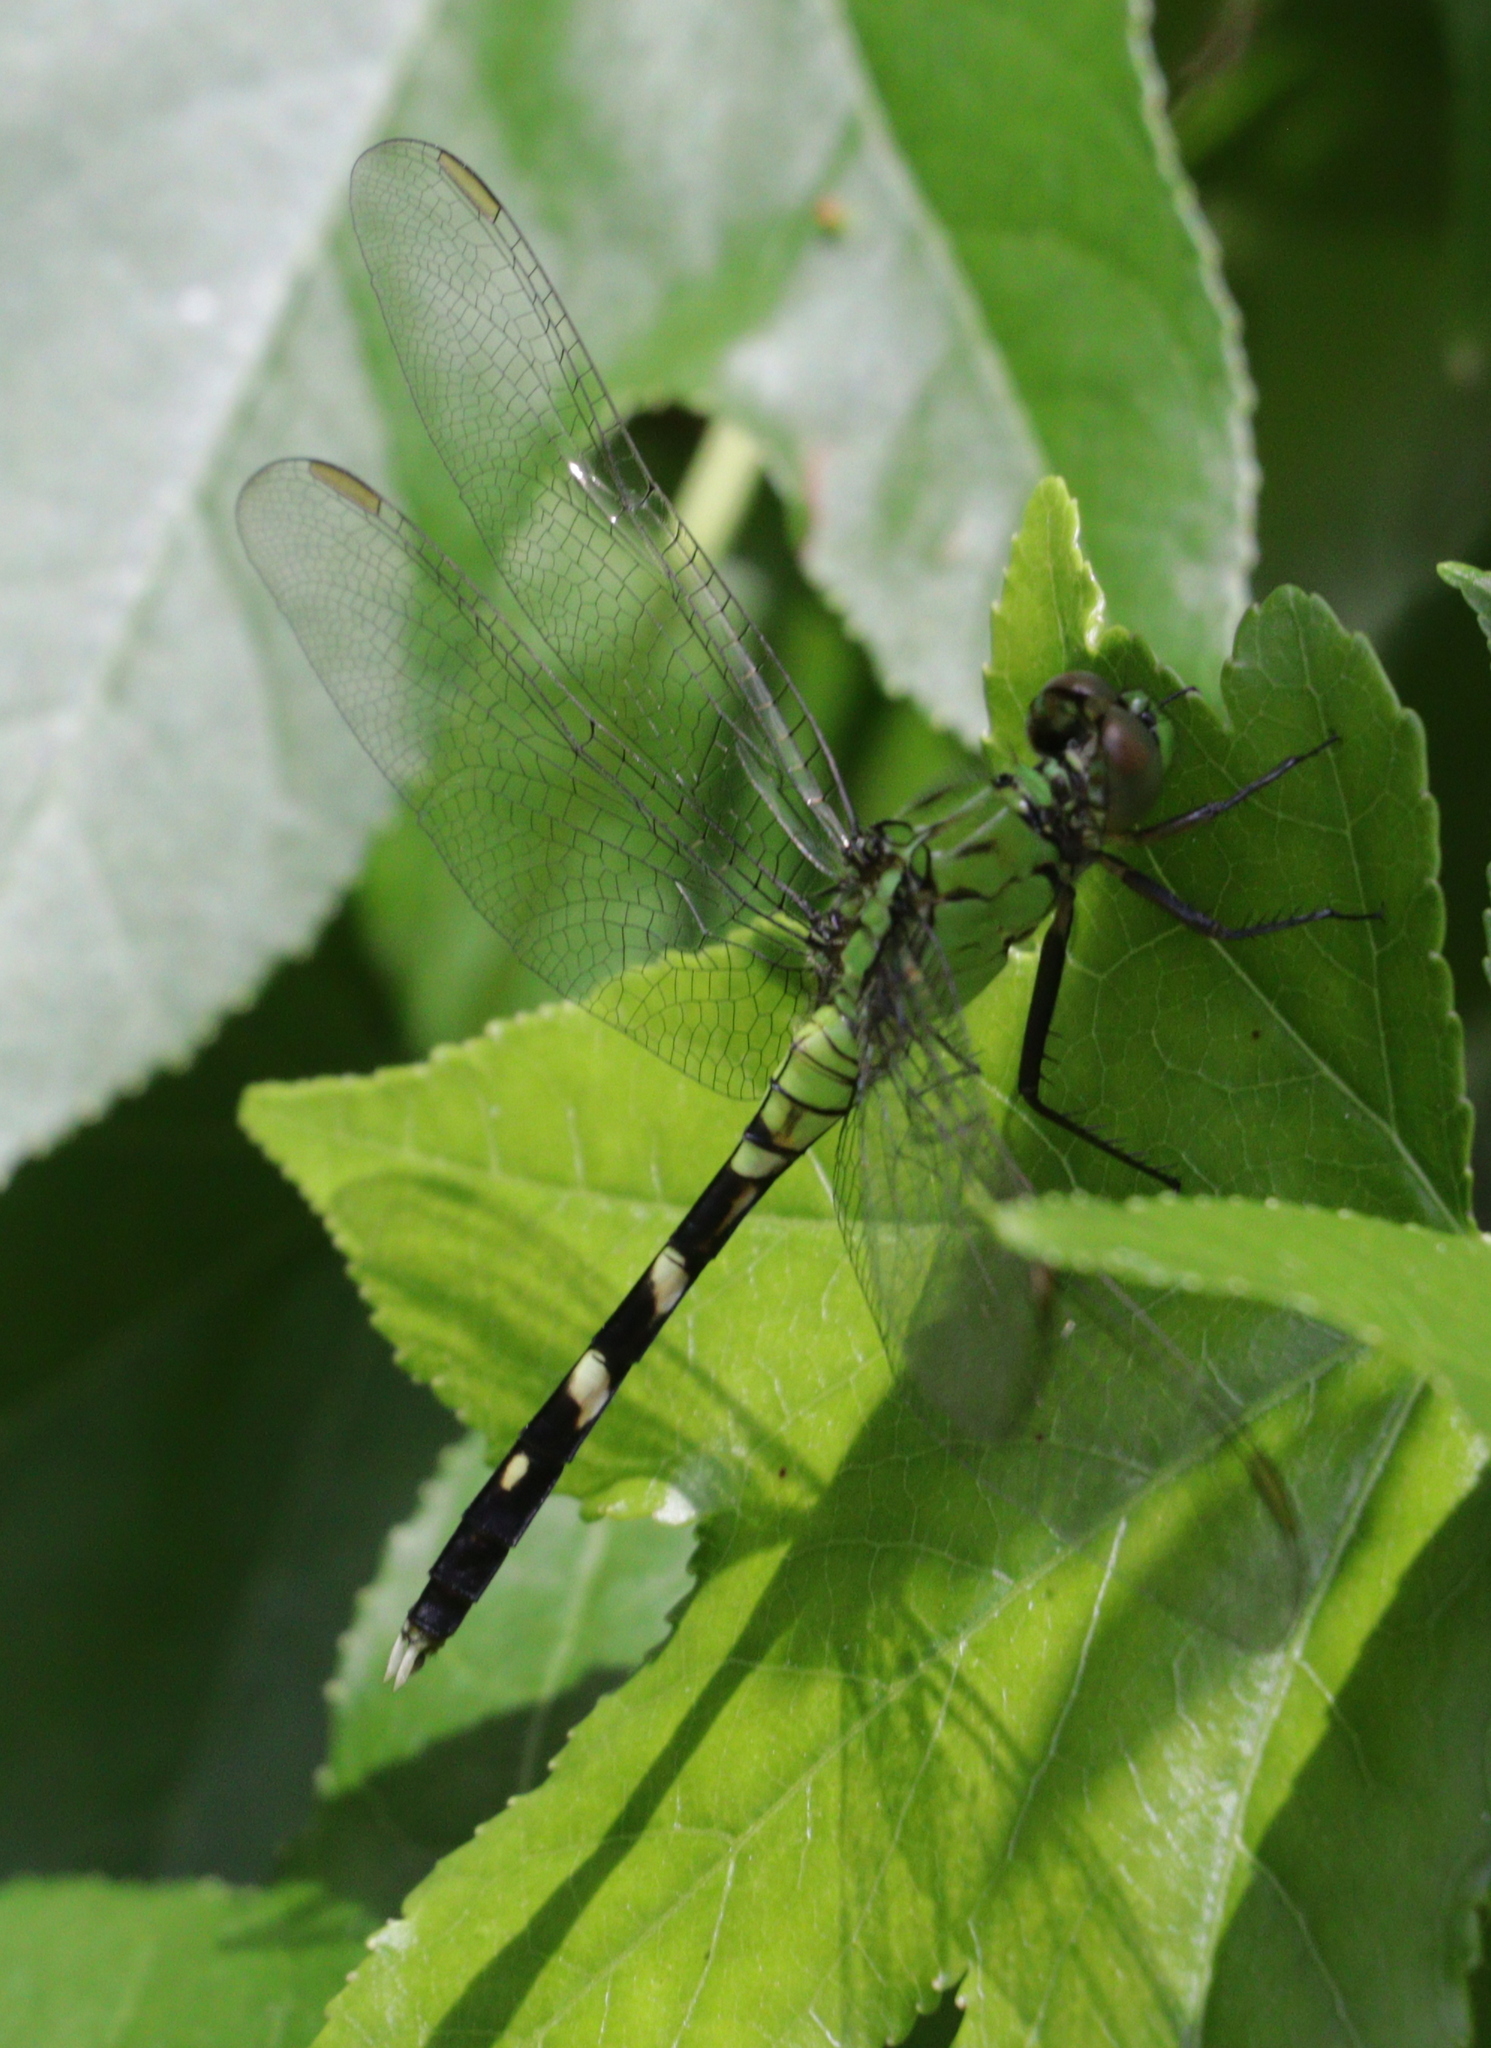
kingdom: Animalia
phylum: Arthropoda
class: Insecta
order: Odonata
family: Libellulidae
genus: Erythemis
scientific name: Erythemis simplicicollis
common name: Eastern pondhawk
